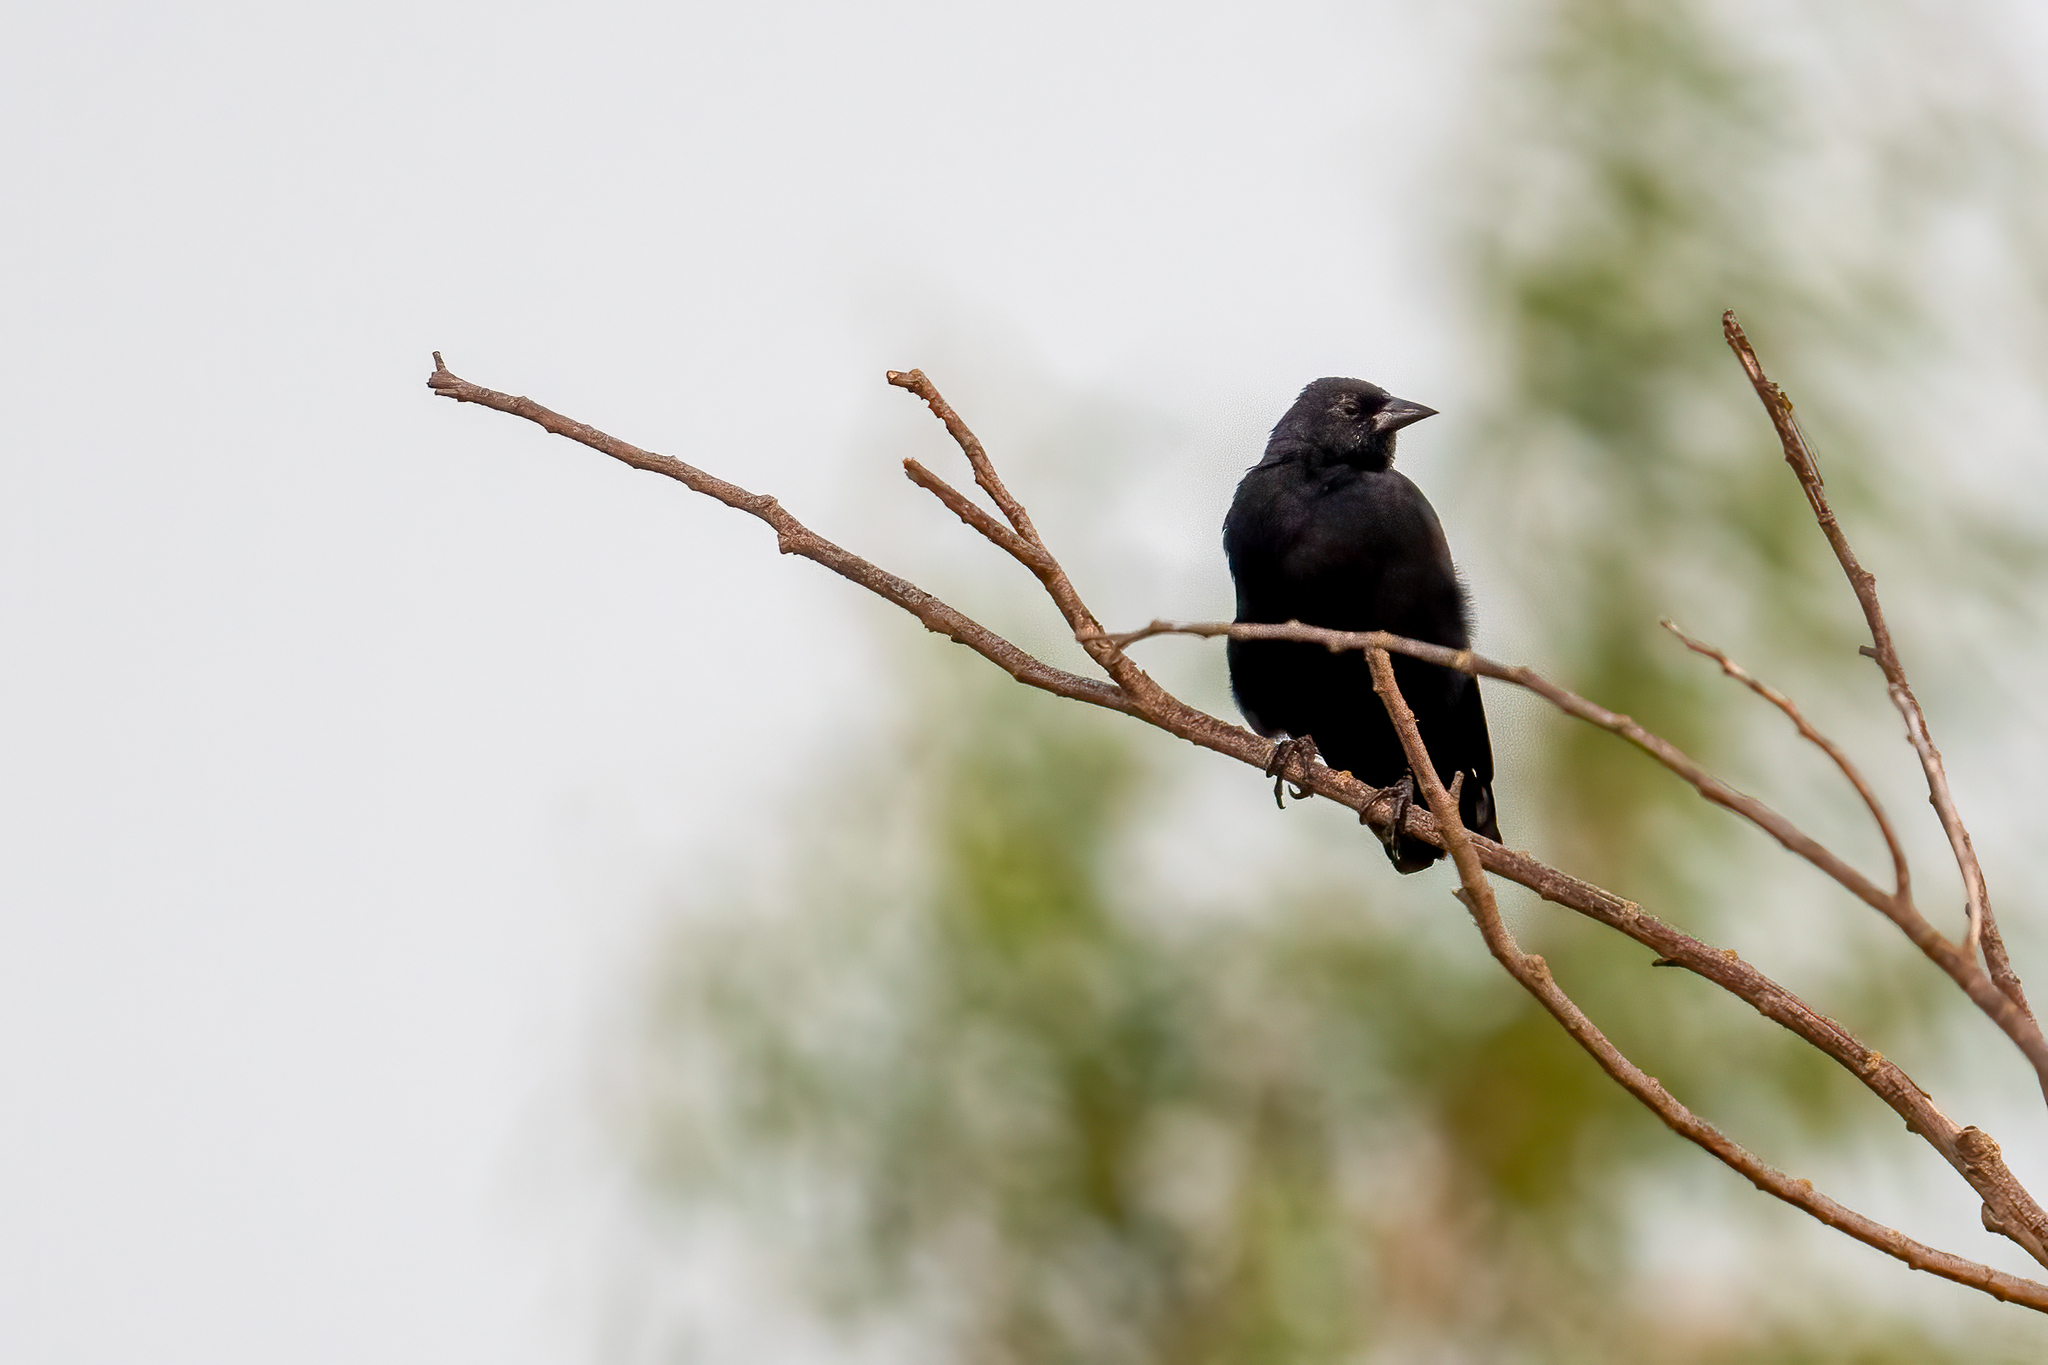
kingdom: Animalia
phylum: Chordata
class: Aves
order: Passeriformes
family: Icteridae
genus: Agelaius
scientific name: Agelaius phoeniceus
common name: Red-winged blackbird
